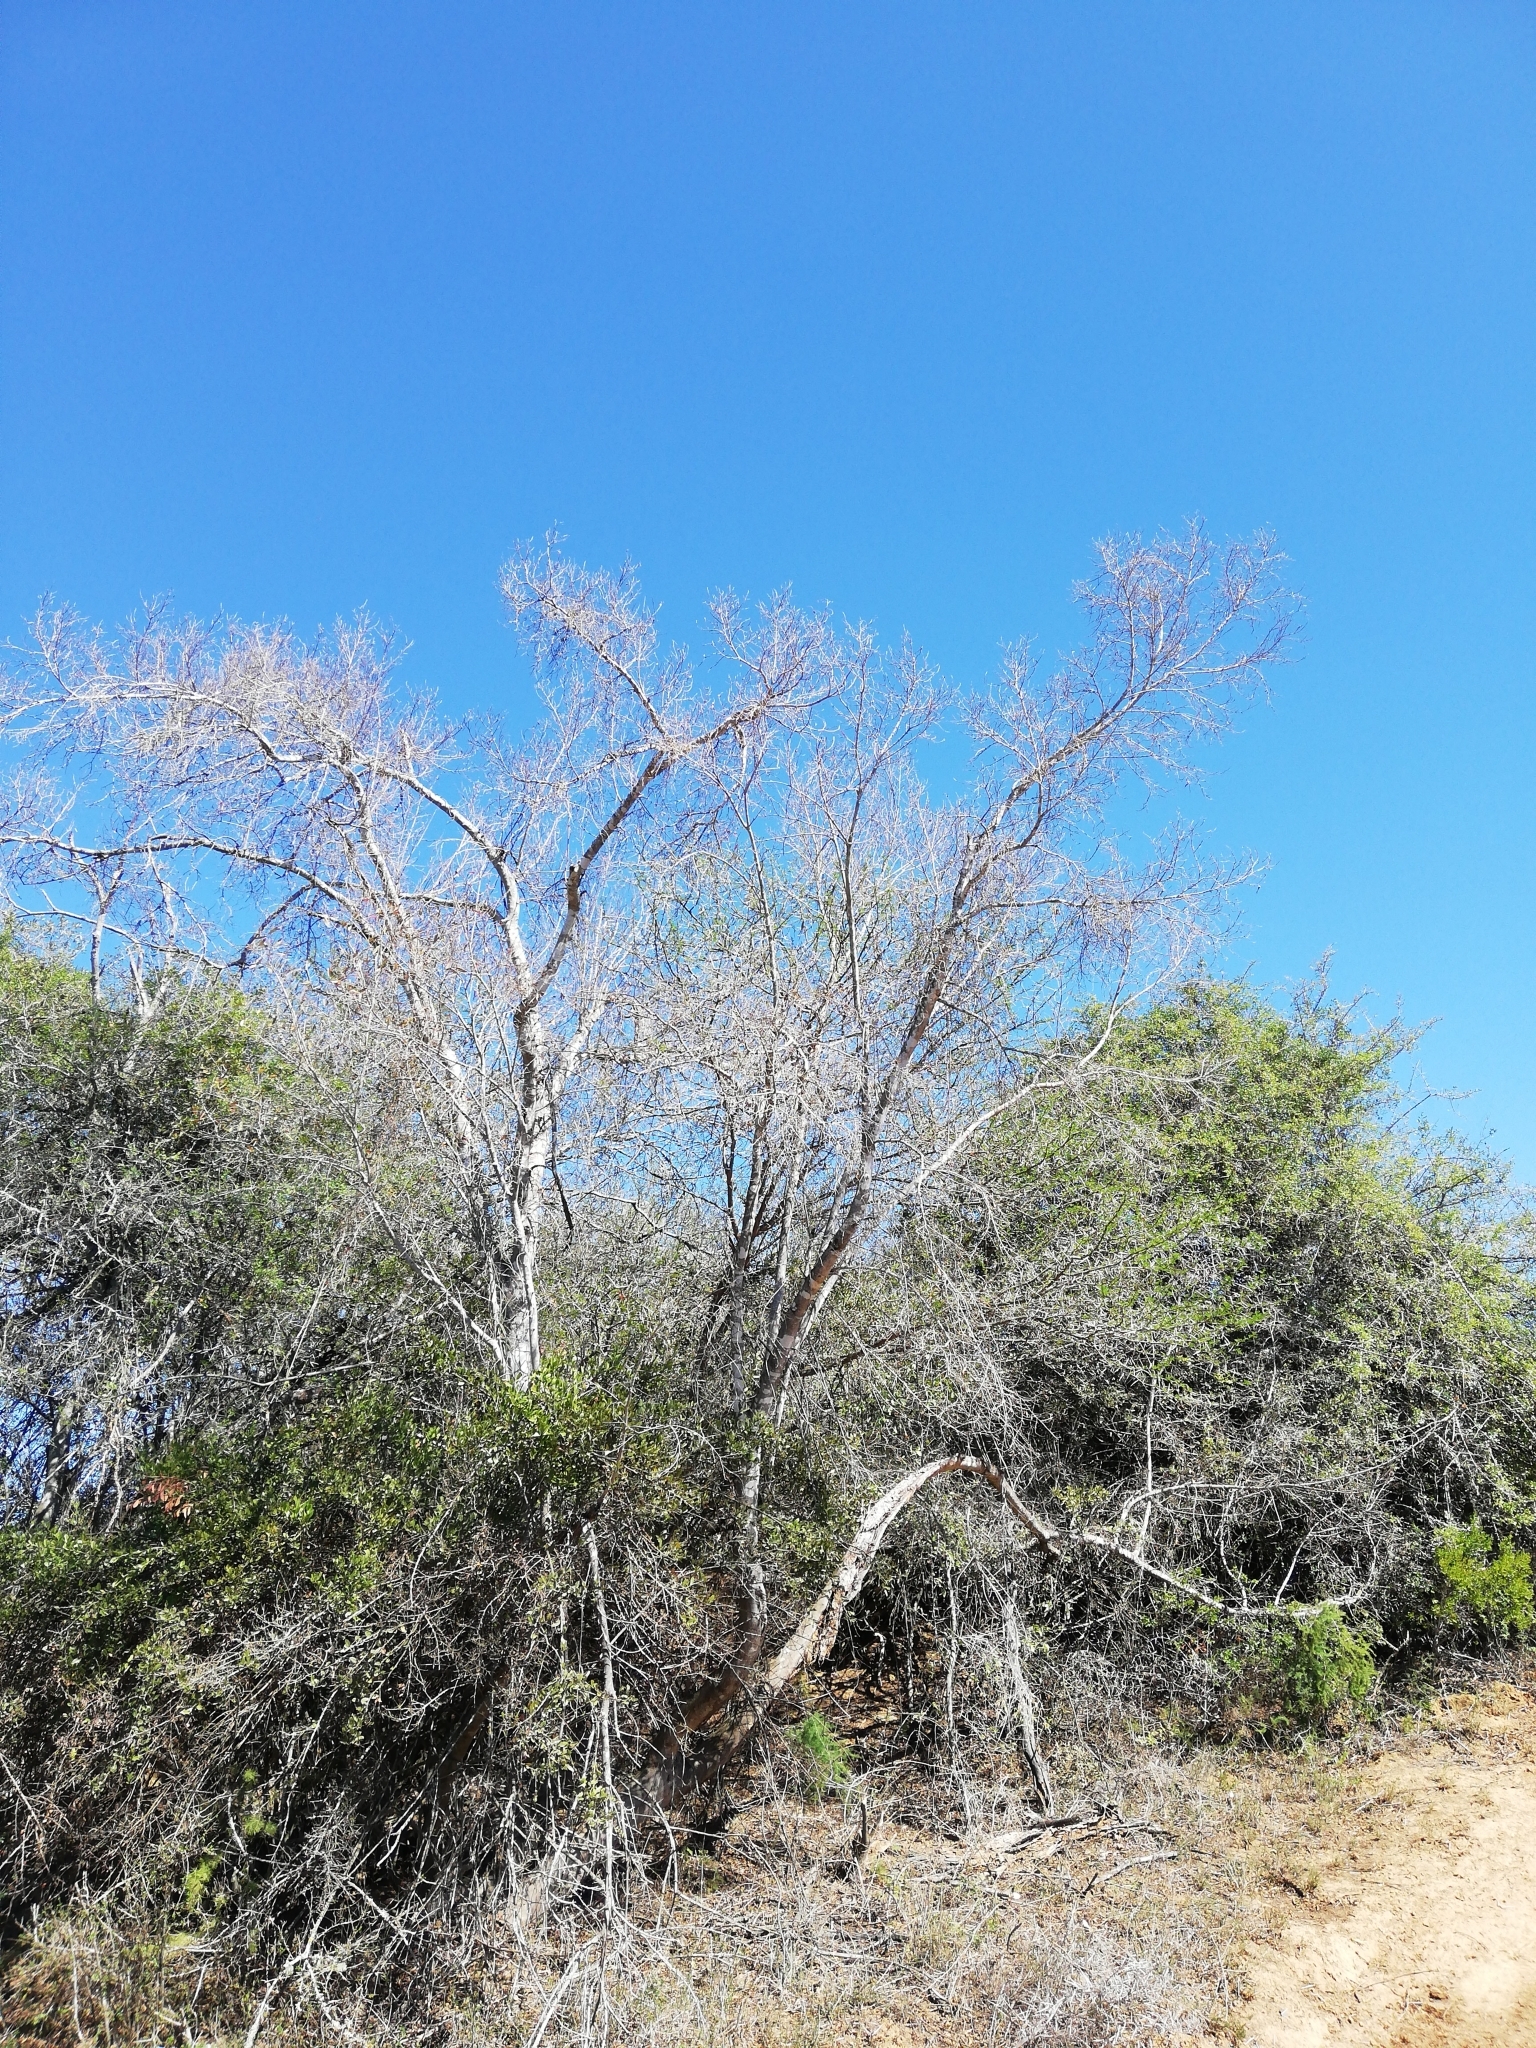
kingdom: Plantae
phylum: Tracheophyta
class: Magnoliopsida
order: Myrtales
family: Combretaceae
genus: Combretum
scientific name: Combretum caffrum
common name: Cape bushwillow
